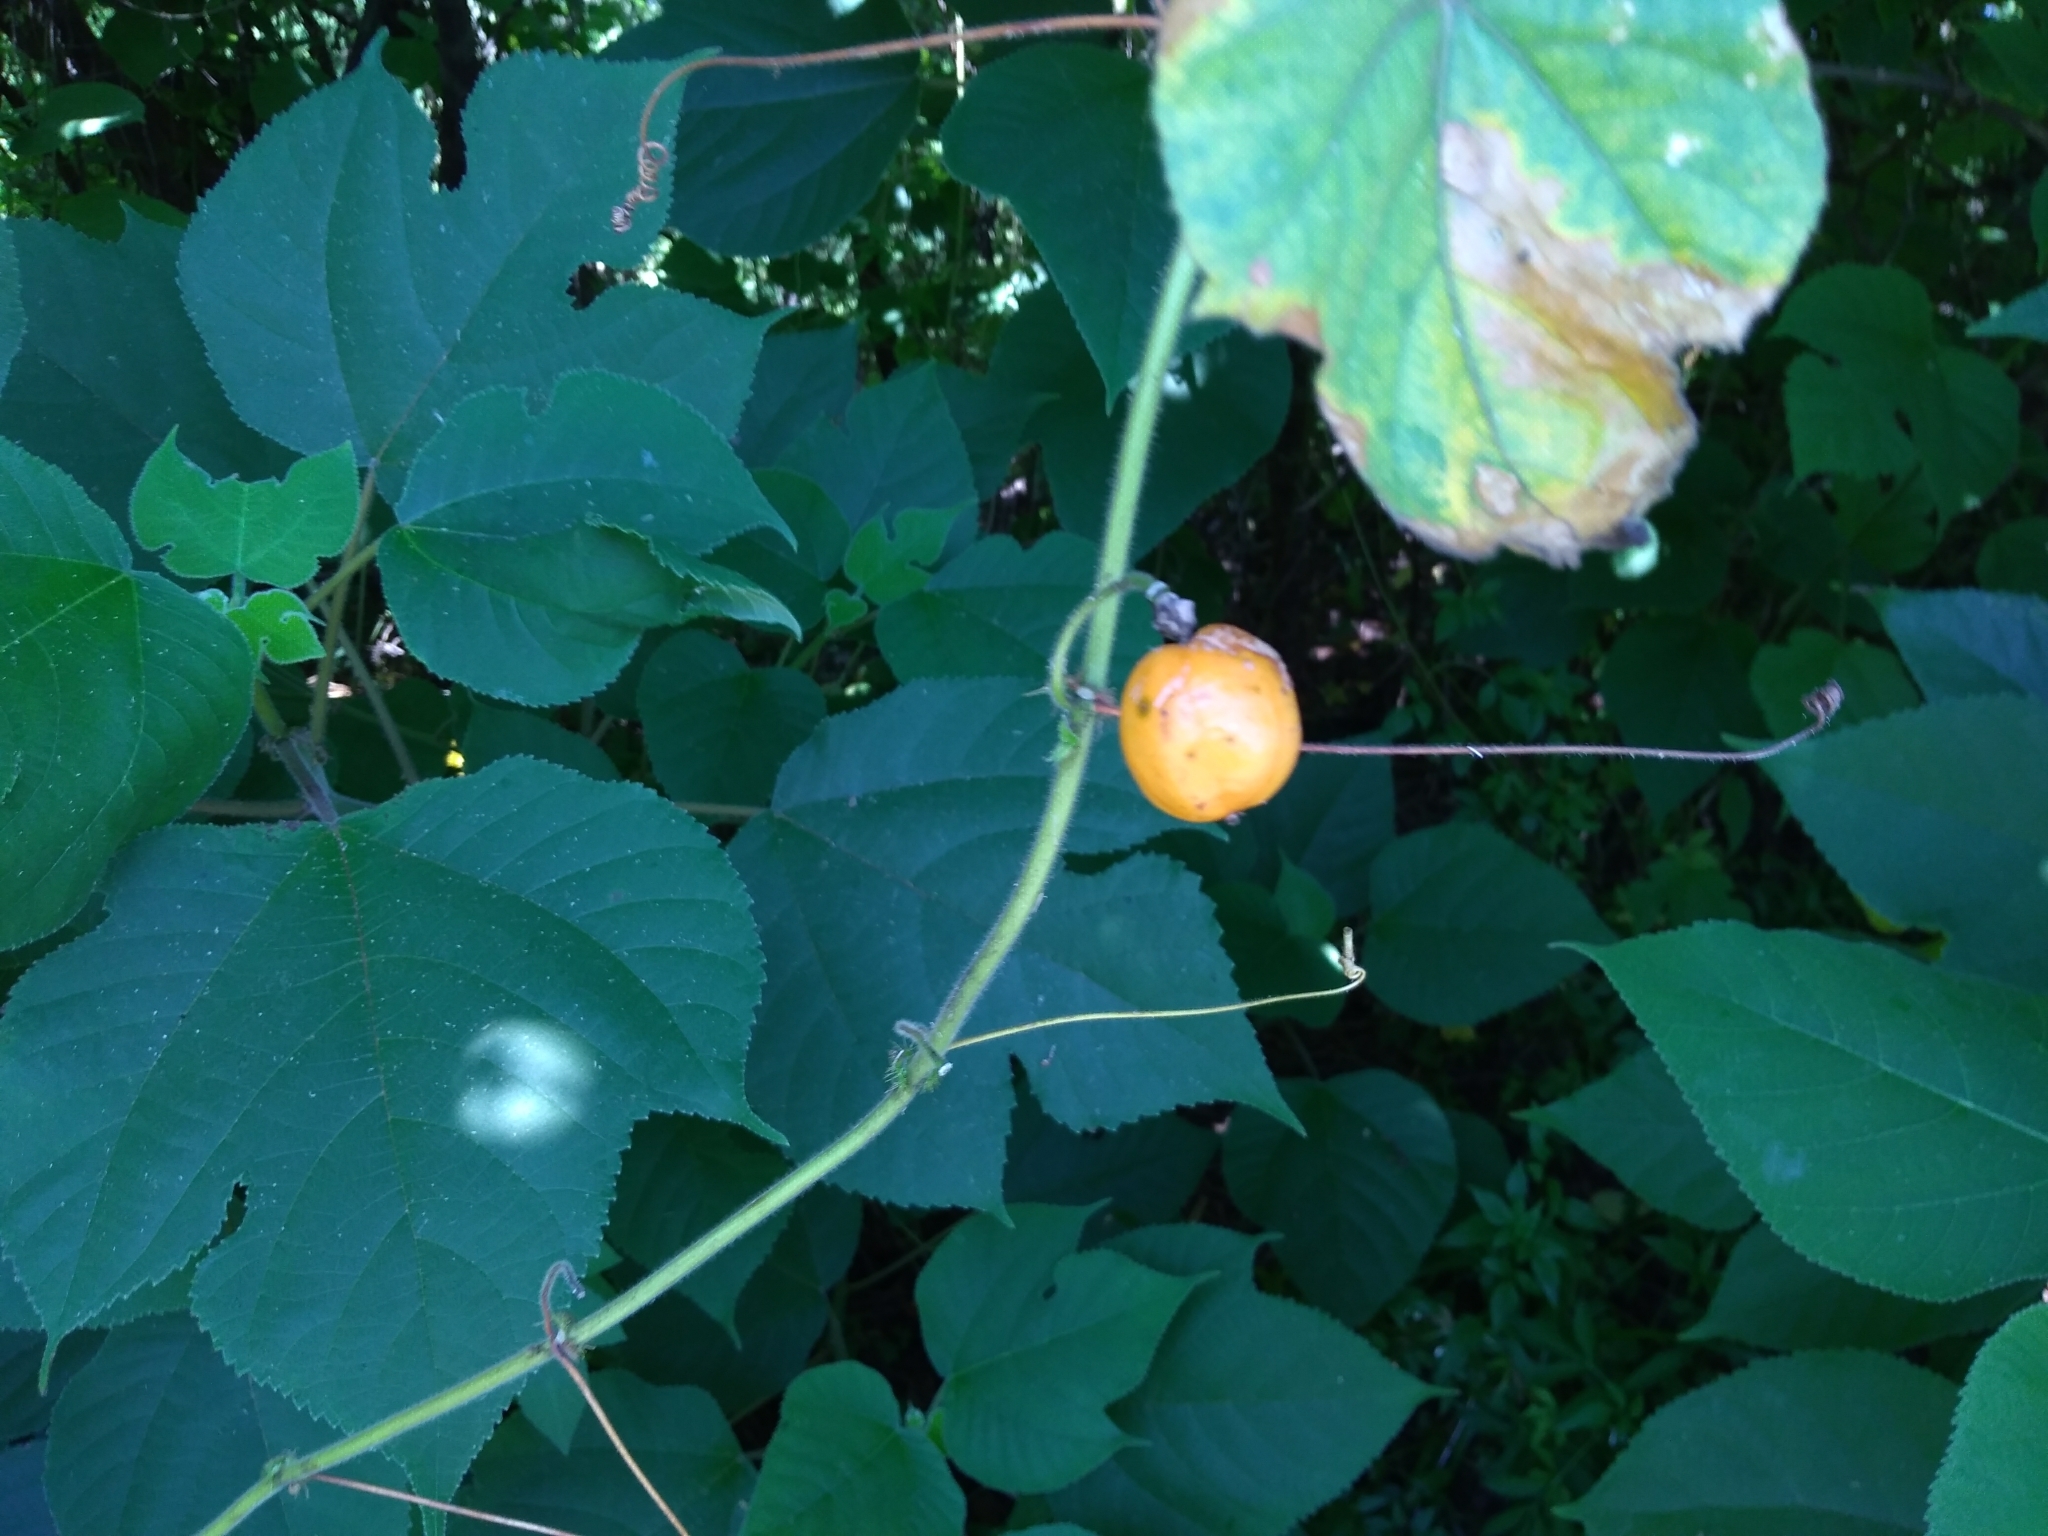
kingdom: Plantae
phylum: Tracheophyta
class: Magnoliopsida
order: Malpighiales
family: Passifloraceae
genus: Passiflora
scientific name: Passiflora vesicaria
